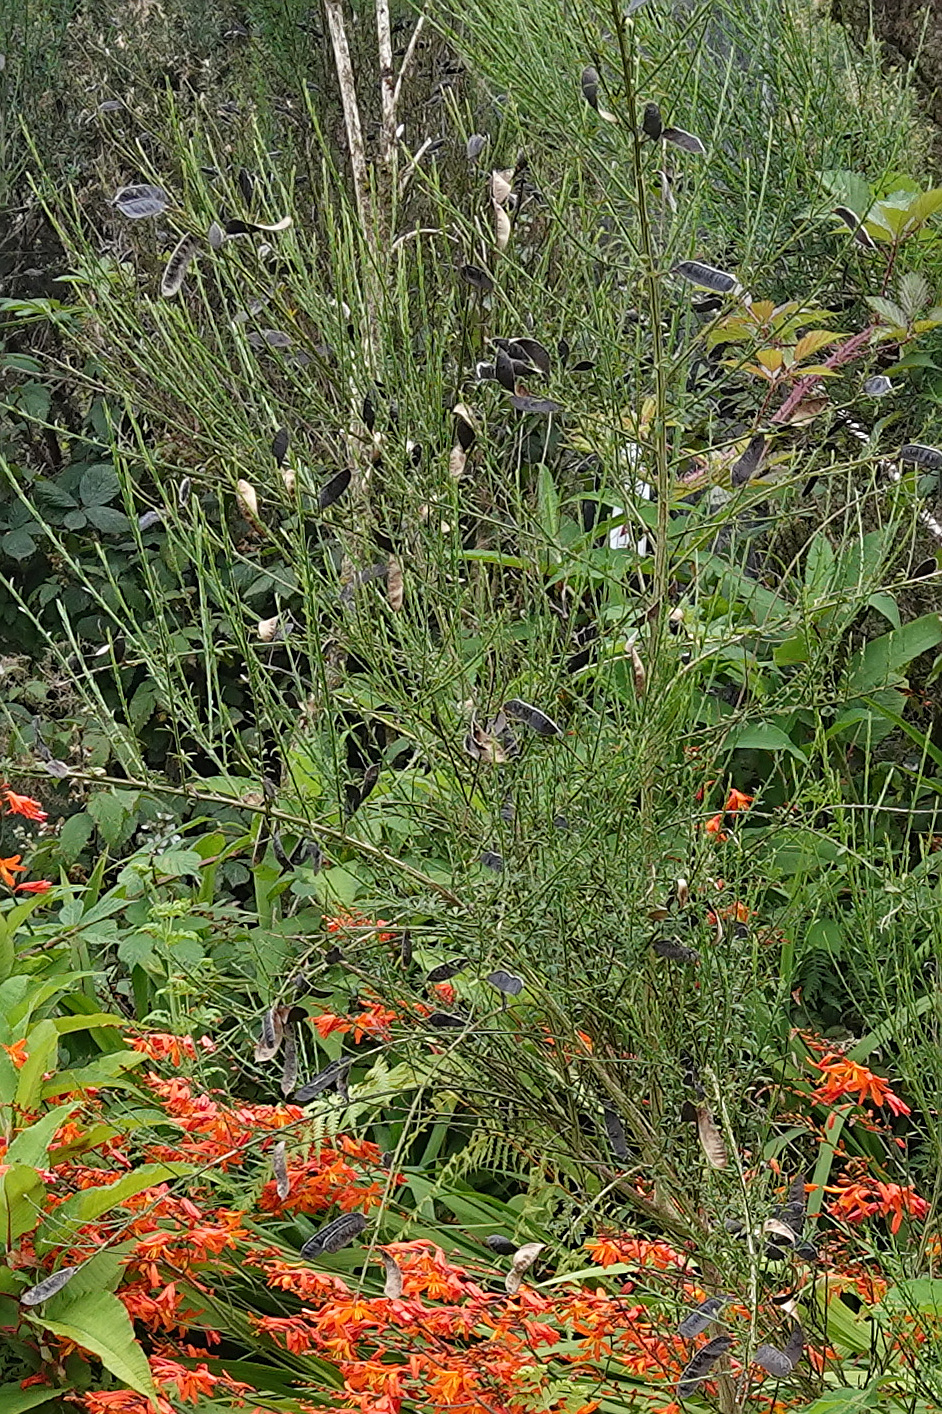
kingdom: Plantae
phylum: Tracheophyta
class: Magnoliopsida
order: Fabales
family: Fabaceae
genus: Cytisus
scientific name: Cytisus scoparius
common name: Scotch broom
